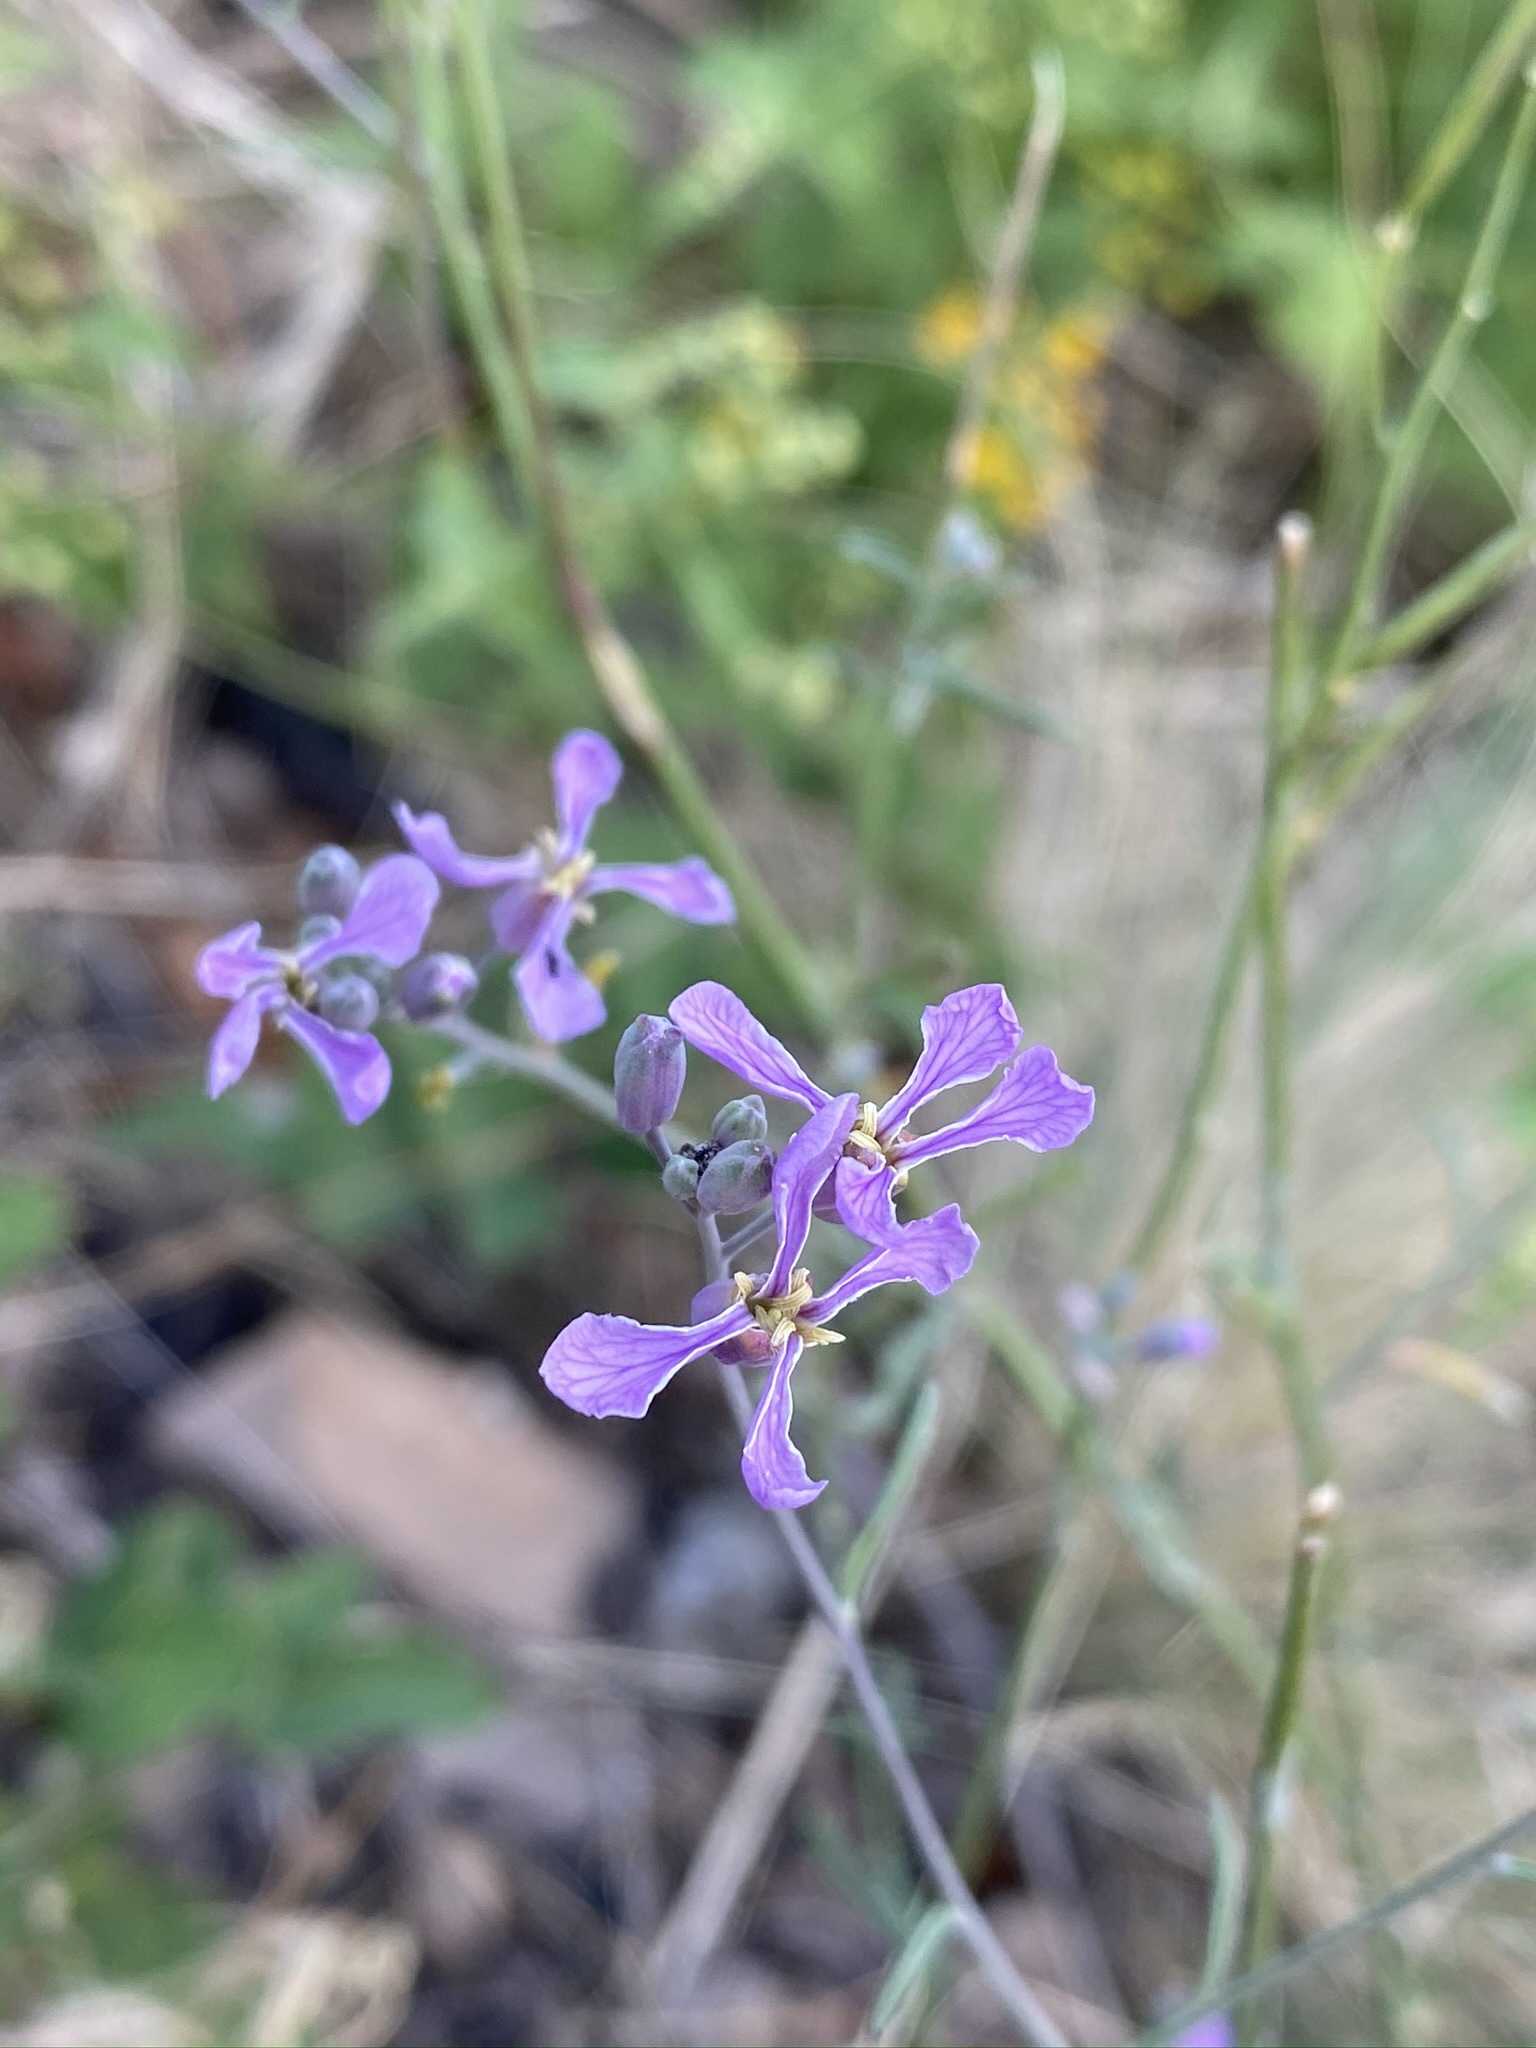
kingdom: Plantae
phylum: Tracheophyta
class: Magnoliopsida
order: Brassicales
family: Brassicaceae
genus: Hesperidanthus
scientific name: Hesperidanthus linearifolius
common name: Slim-leaf plains mustard
